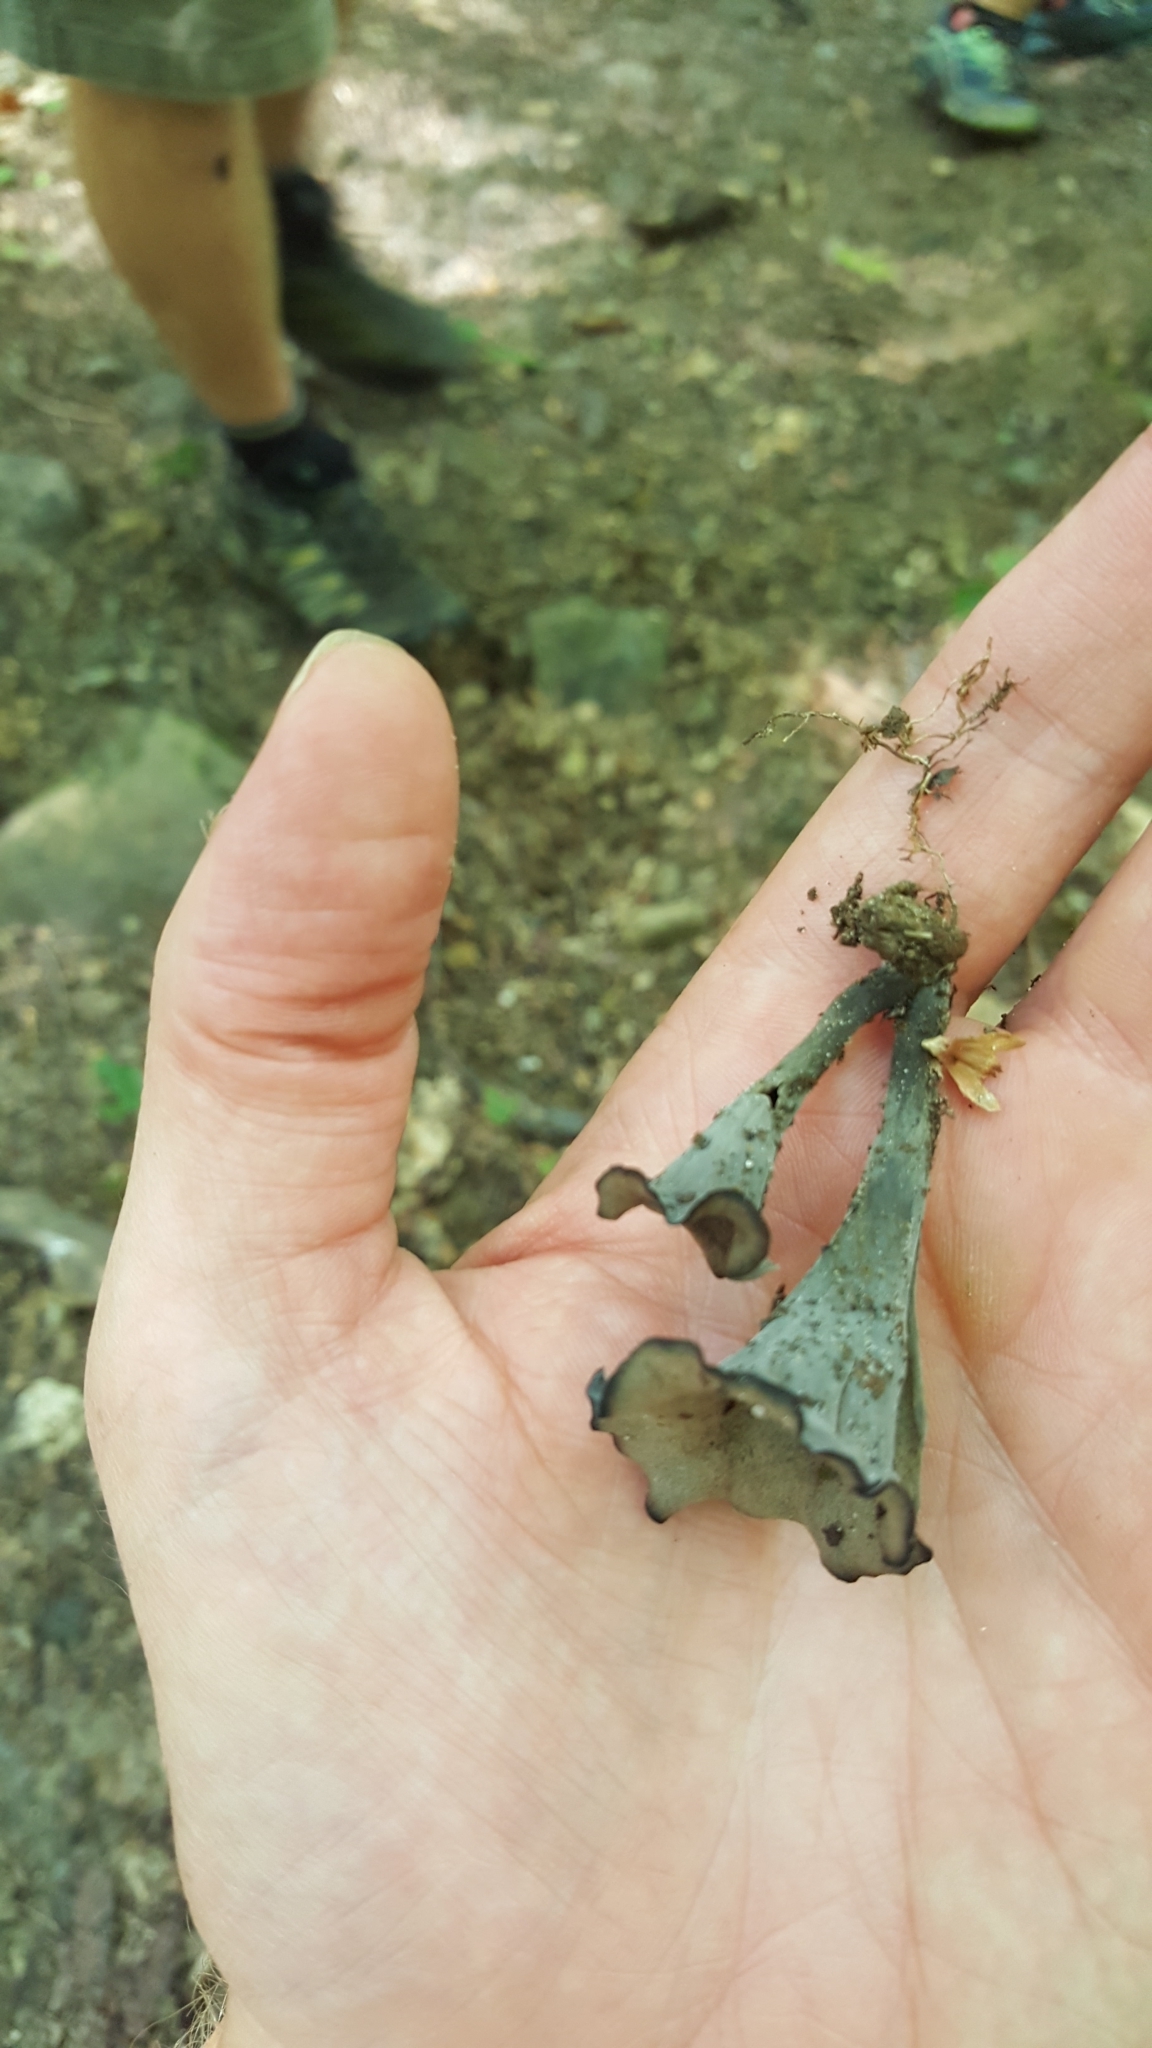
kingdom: Fungi
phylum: Basidiomycota
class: Agaricomycetes
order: Cantharellales
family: Hydnaceae
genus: Craterellus
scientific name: Craterellus cornucopioides
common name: Horn of plenty
